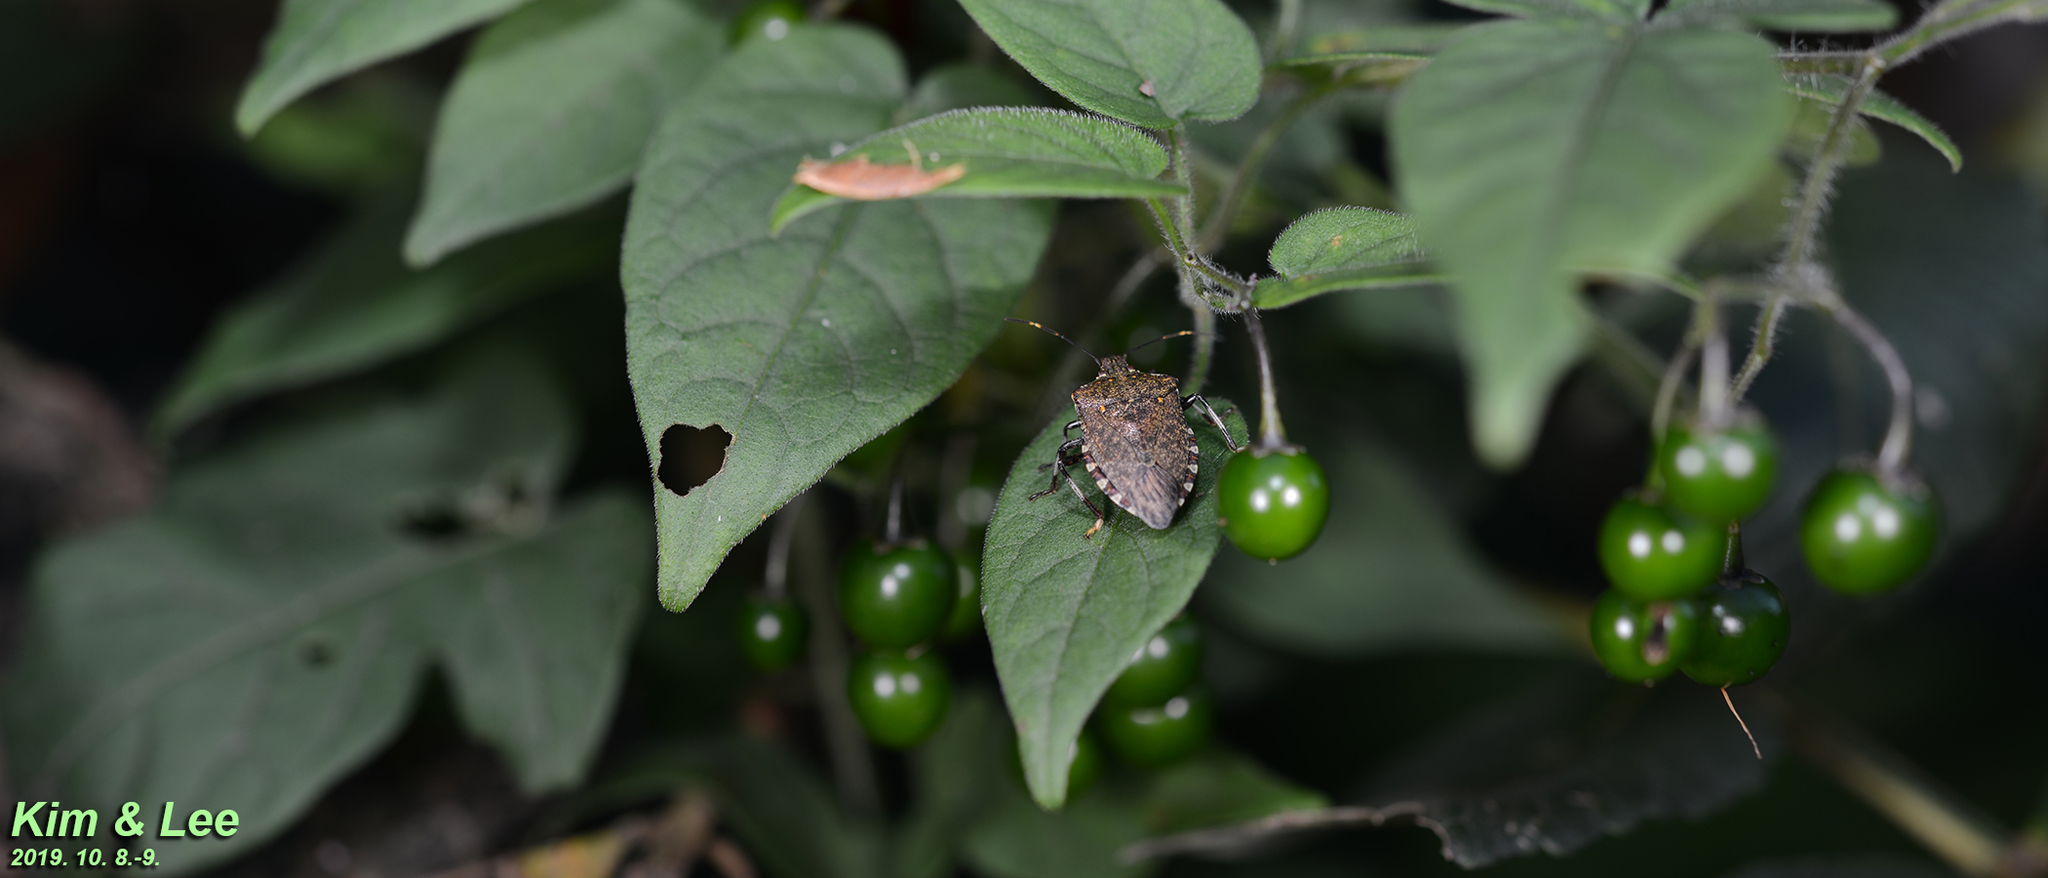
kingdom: Animalia
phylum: Arthropoda
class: Insecta
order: Hemiptera
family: Pentatomidae
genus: Halyomorpha
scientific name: Halyomorpha halys
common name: Brown marmorated stink bug
